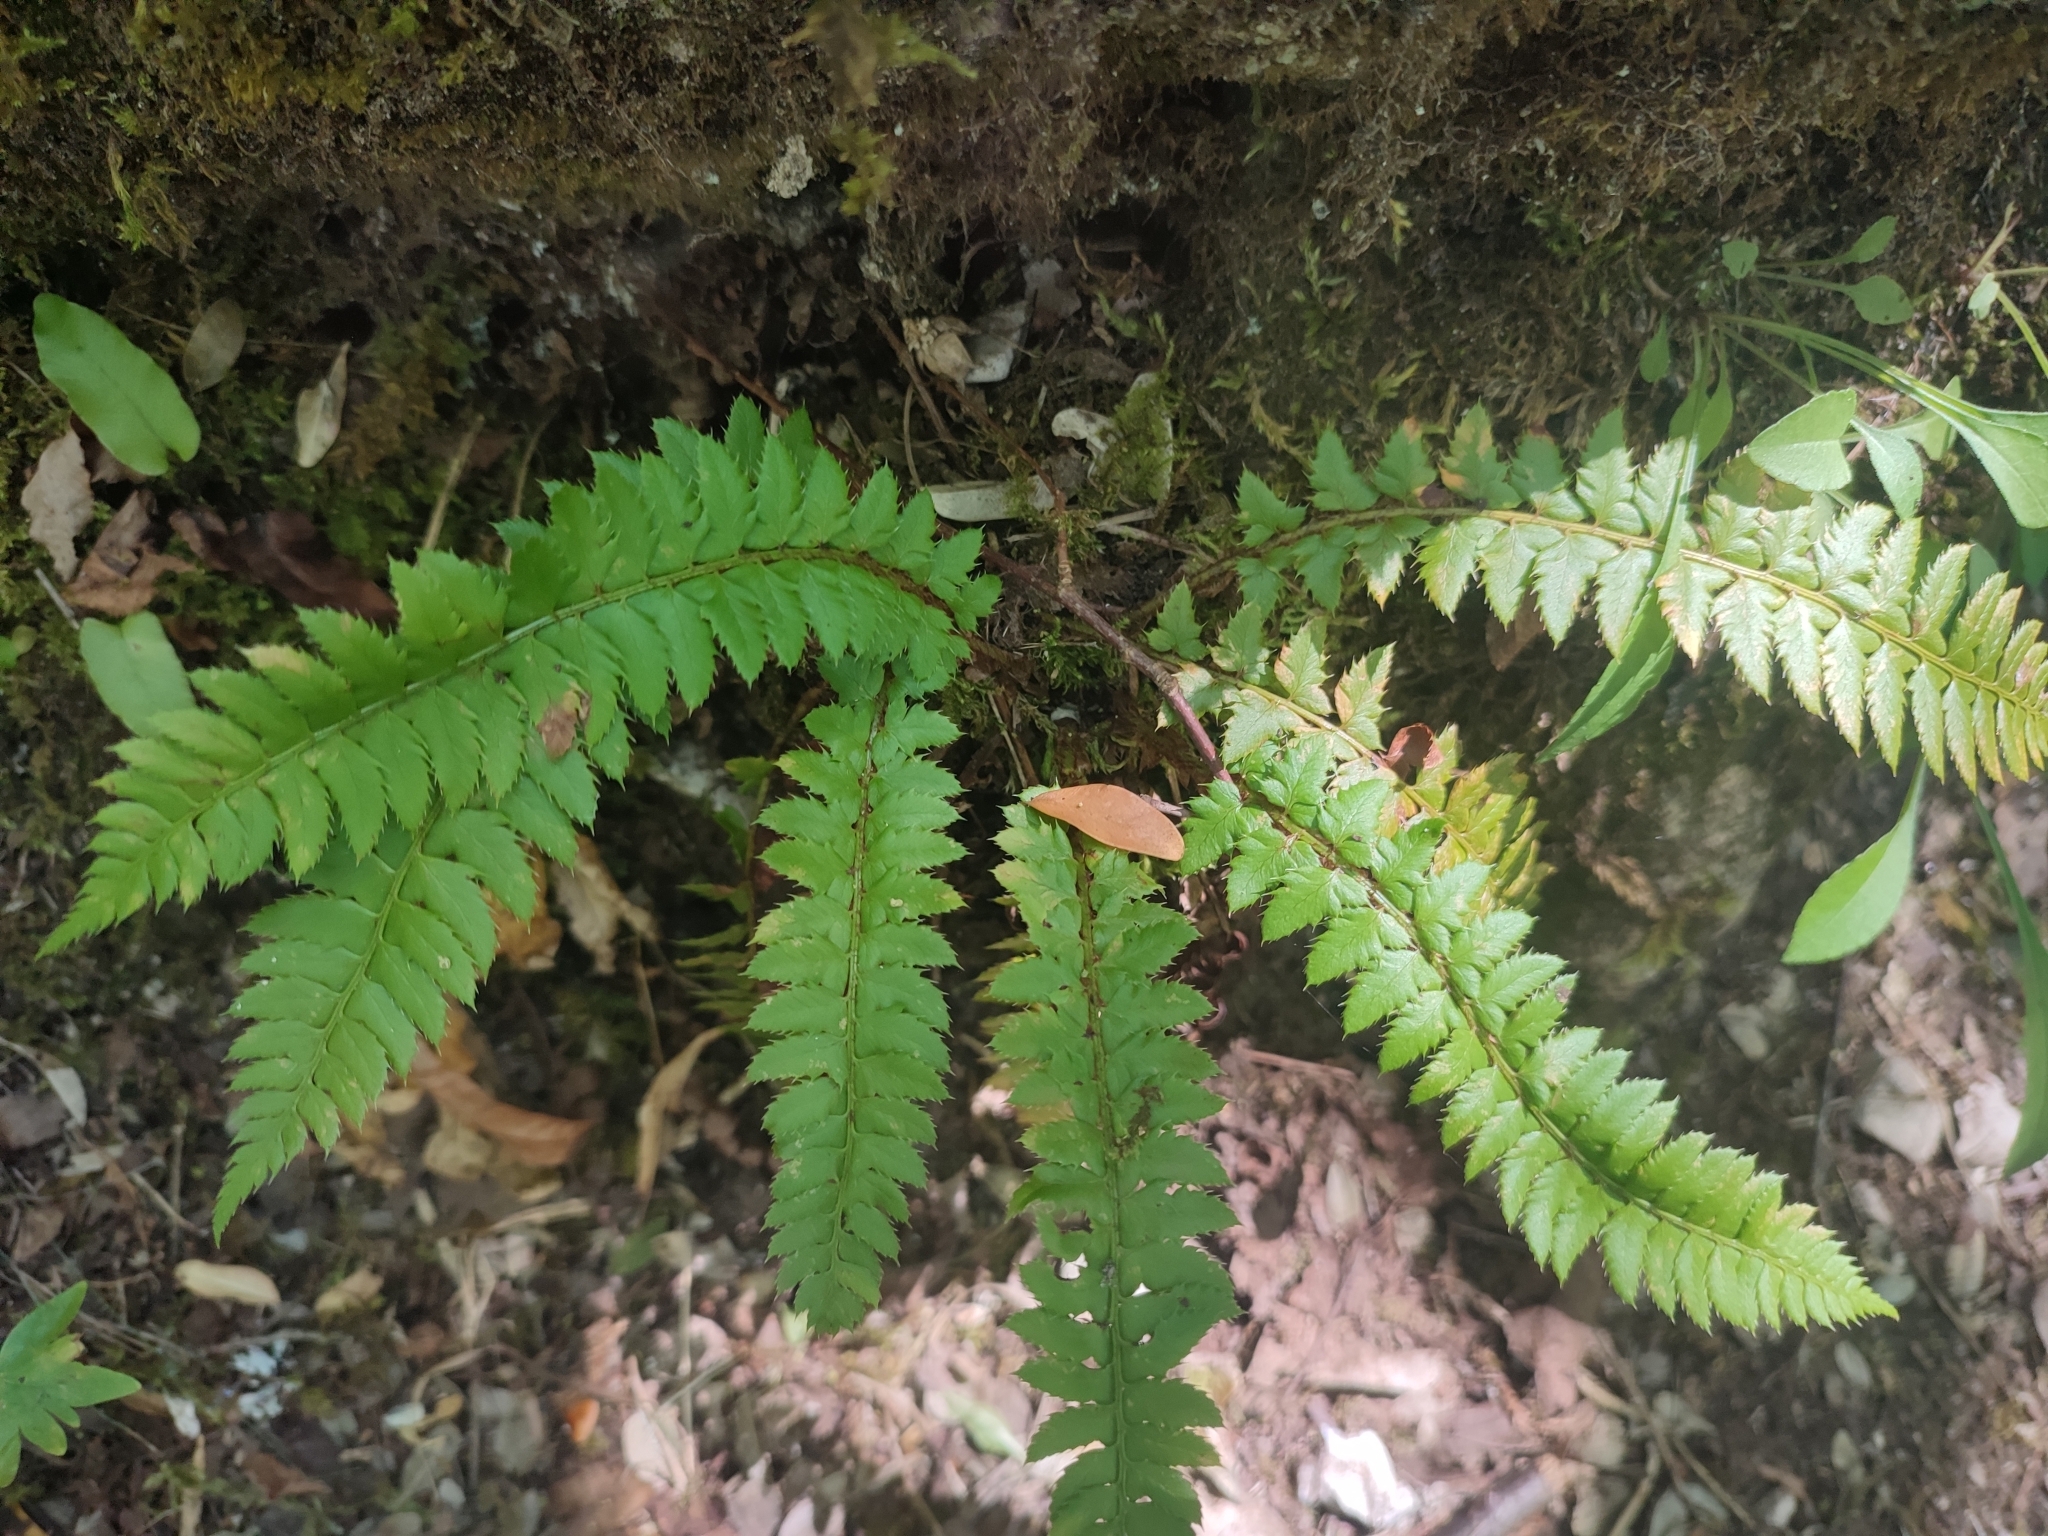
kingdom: Plantae
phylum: Tracheophyta
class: Polypodiopsida
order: Polypodiales
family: Dryopteridaceae
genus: Polystichum
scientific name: Polystichum aculeatum
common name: Hard shield-fern
